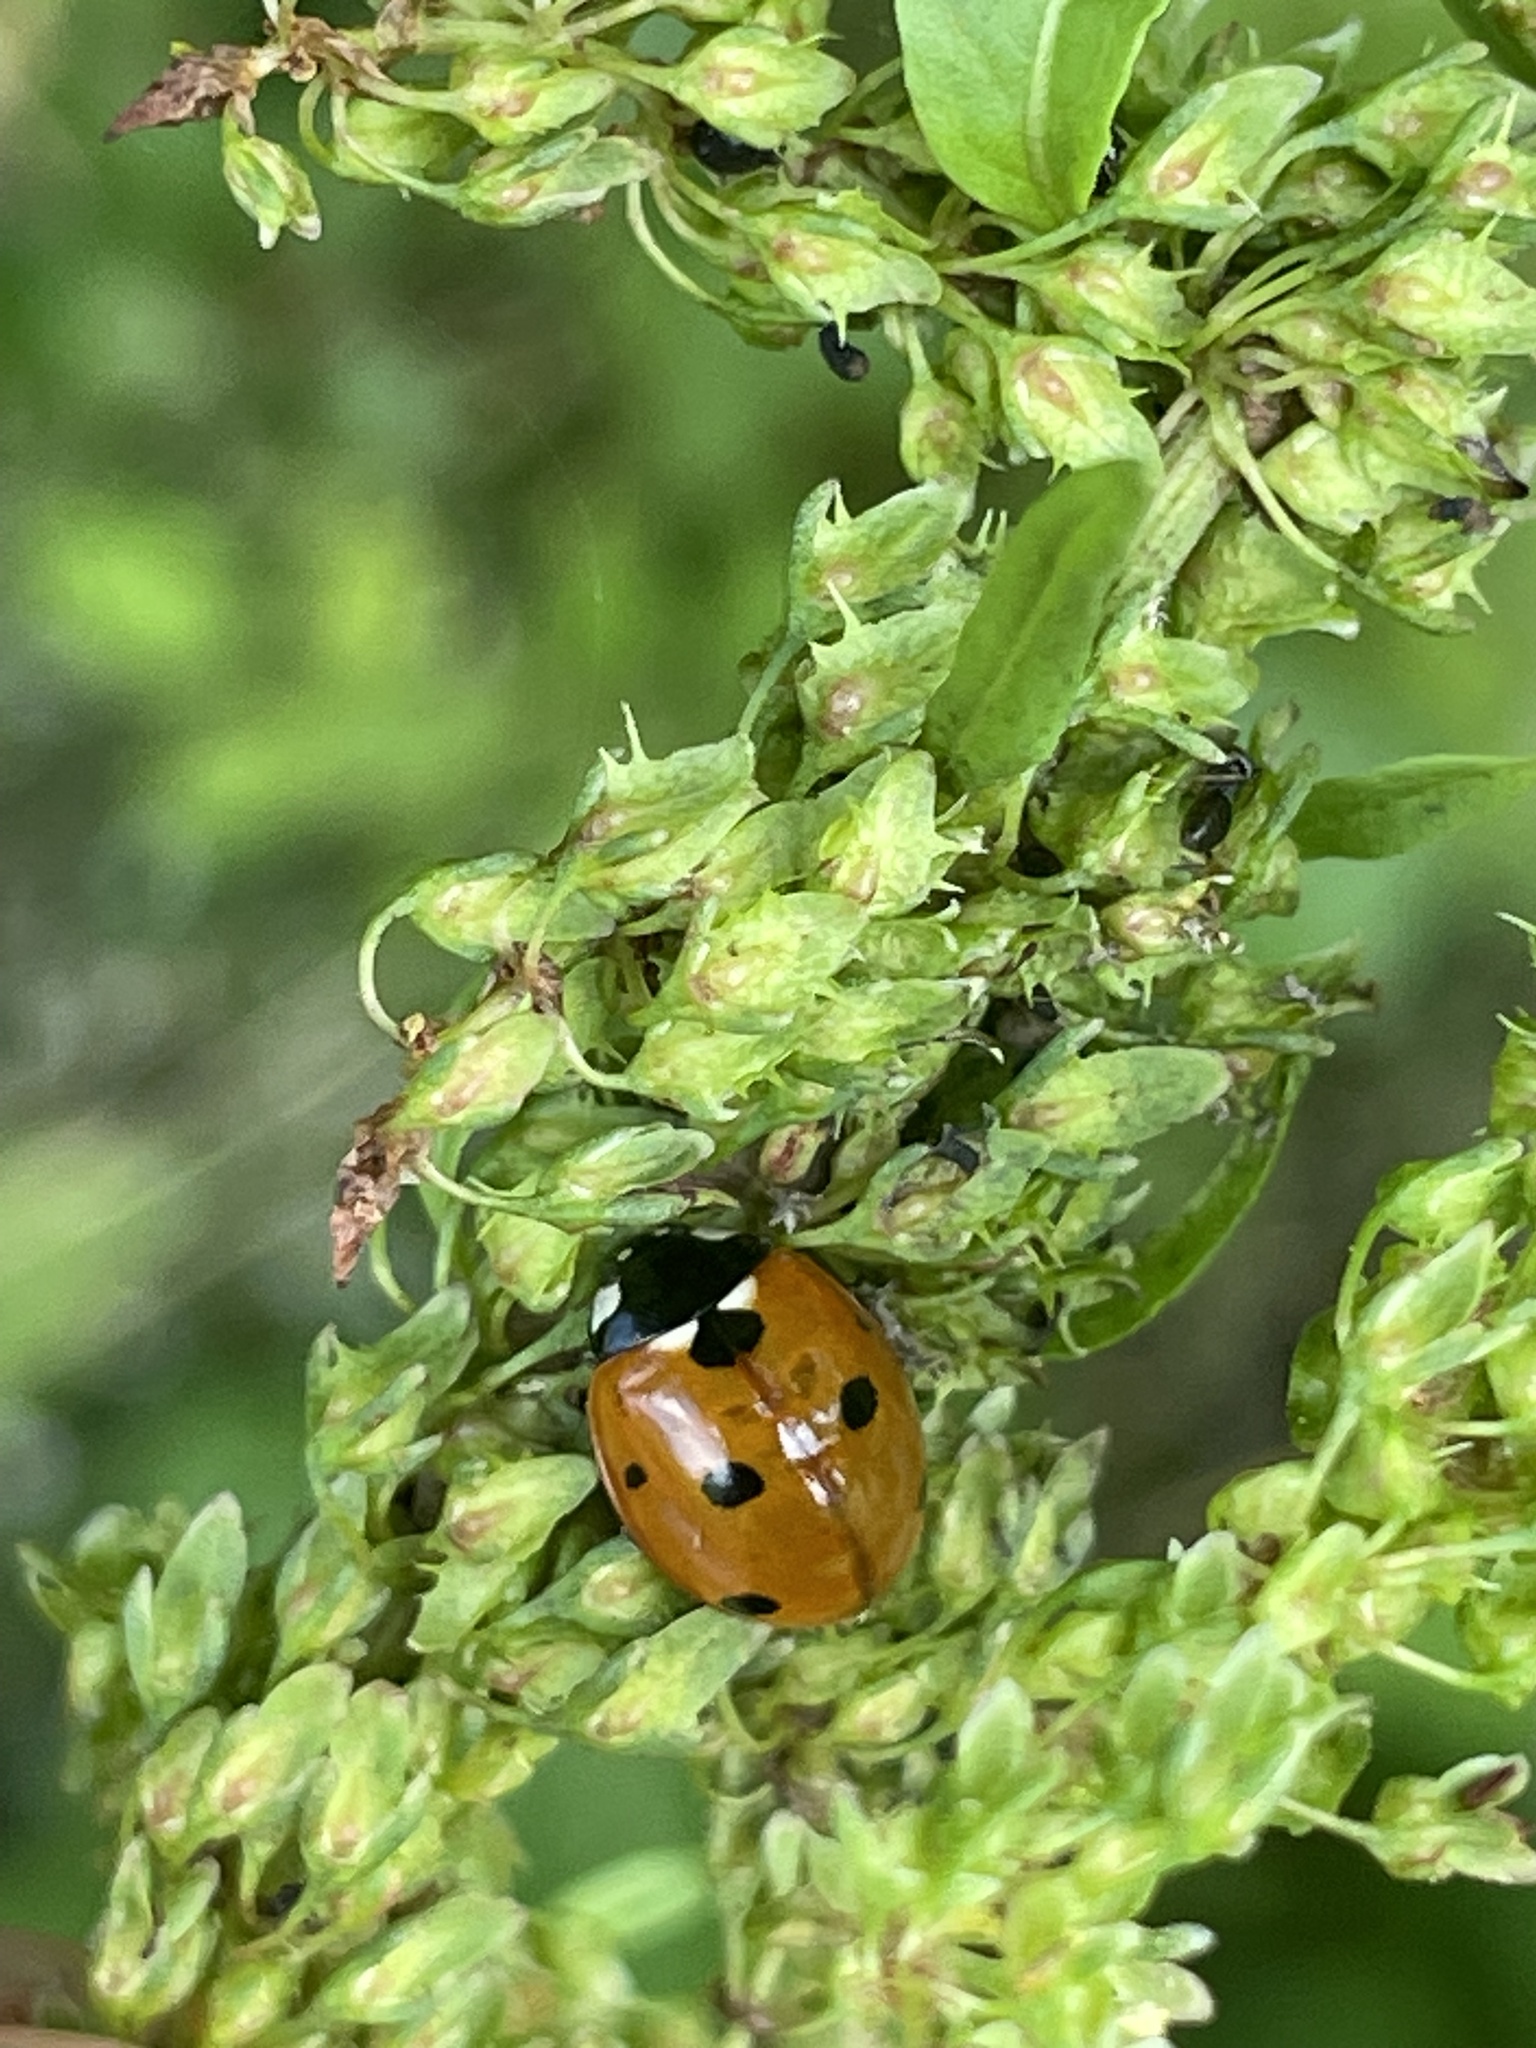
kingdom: Animalia
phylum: Arthropoda
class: Insecta
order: Coleoptera
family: Coccinellidae
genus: Coccinella
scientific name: Coccinella septempunctata
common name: Sevenspotted lady beetle
